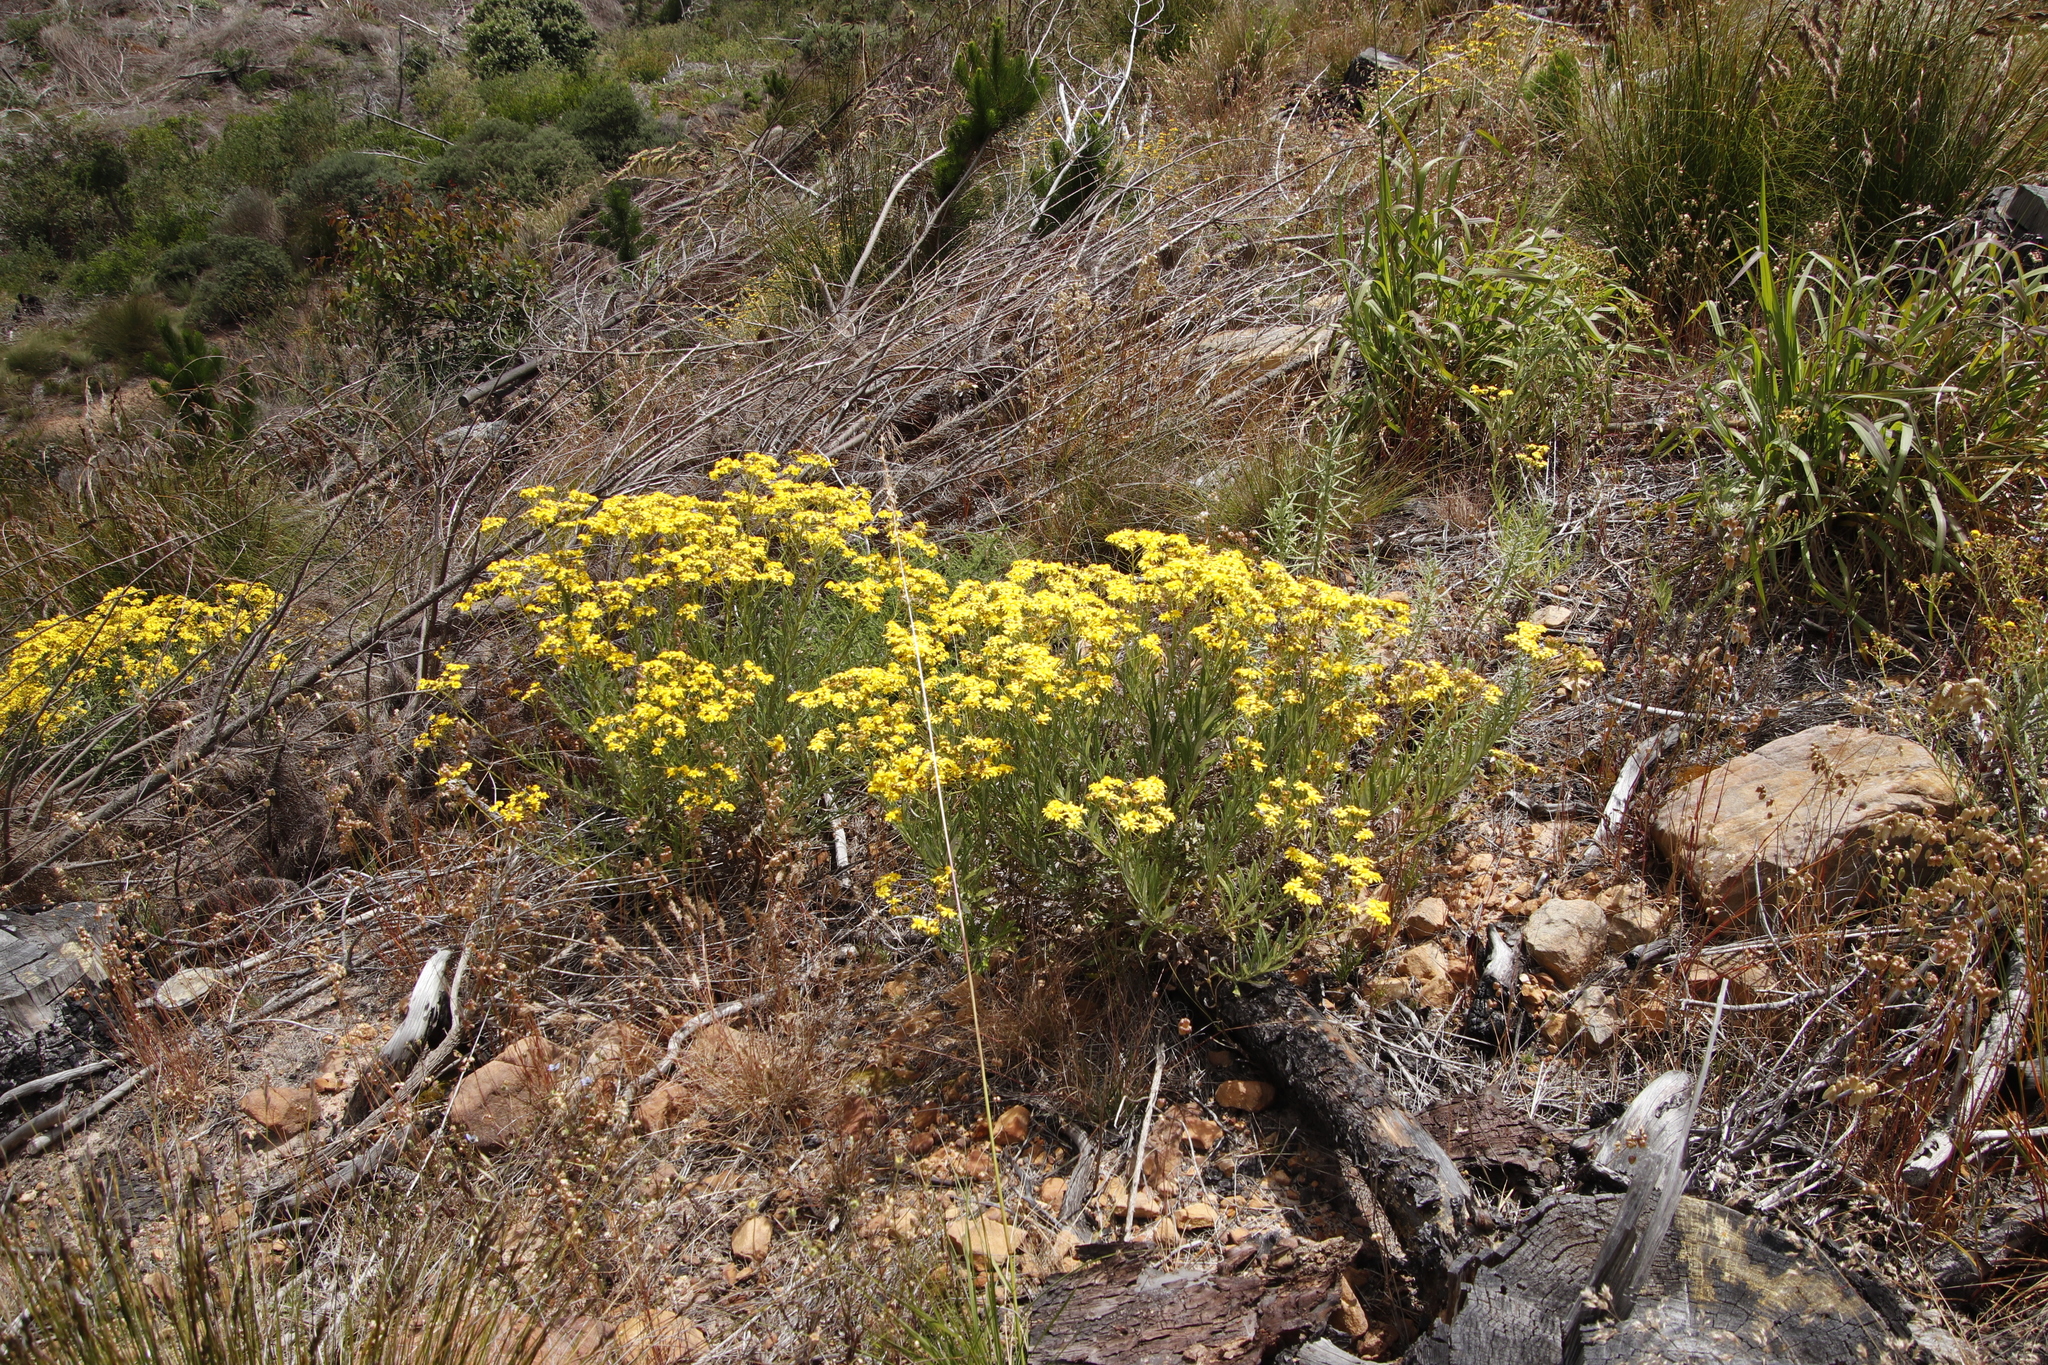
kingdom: Plantae
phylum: Tracheophyta
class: Magnoliopsida
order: Asterales
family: Asteraceae
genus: Senecio
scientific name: Senecio pterophorus
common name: Shoddy ragwort
